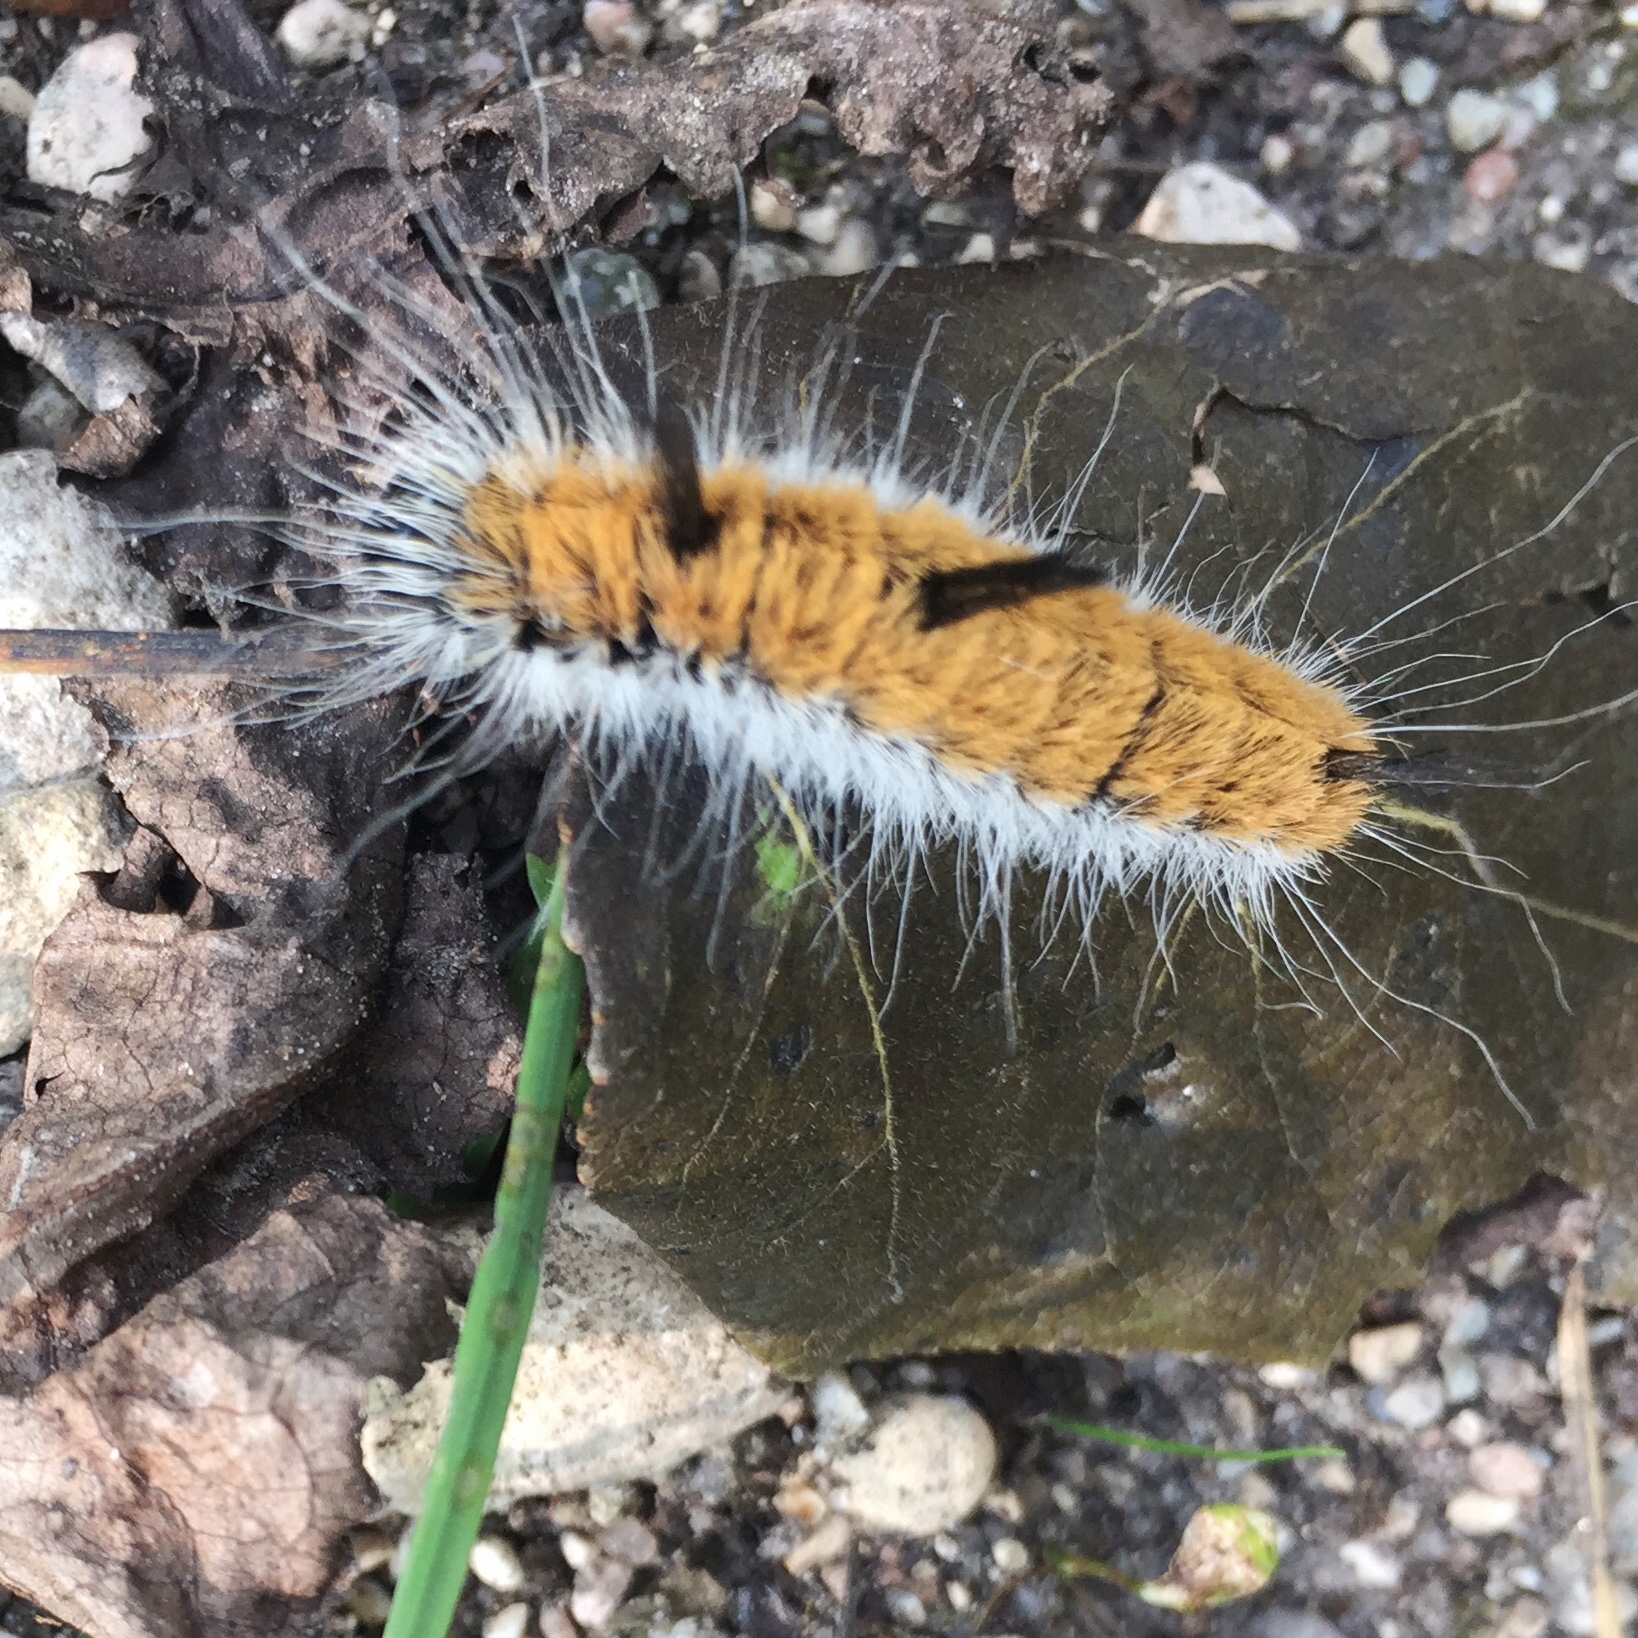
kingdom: Animalia
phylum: Arthropoda
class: Insecta
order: Lepidoptera
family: Noctuidae
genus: Acronicta
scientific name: Acronicta insita
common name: Large gray dagger
